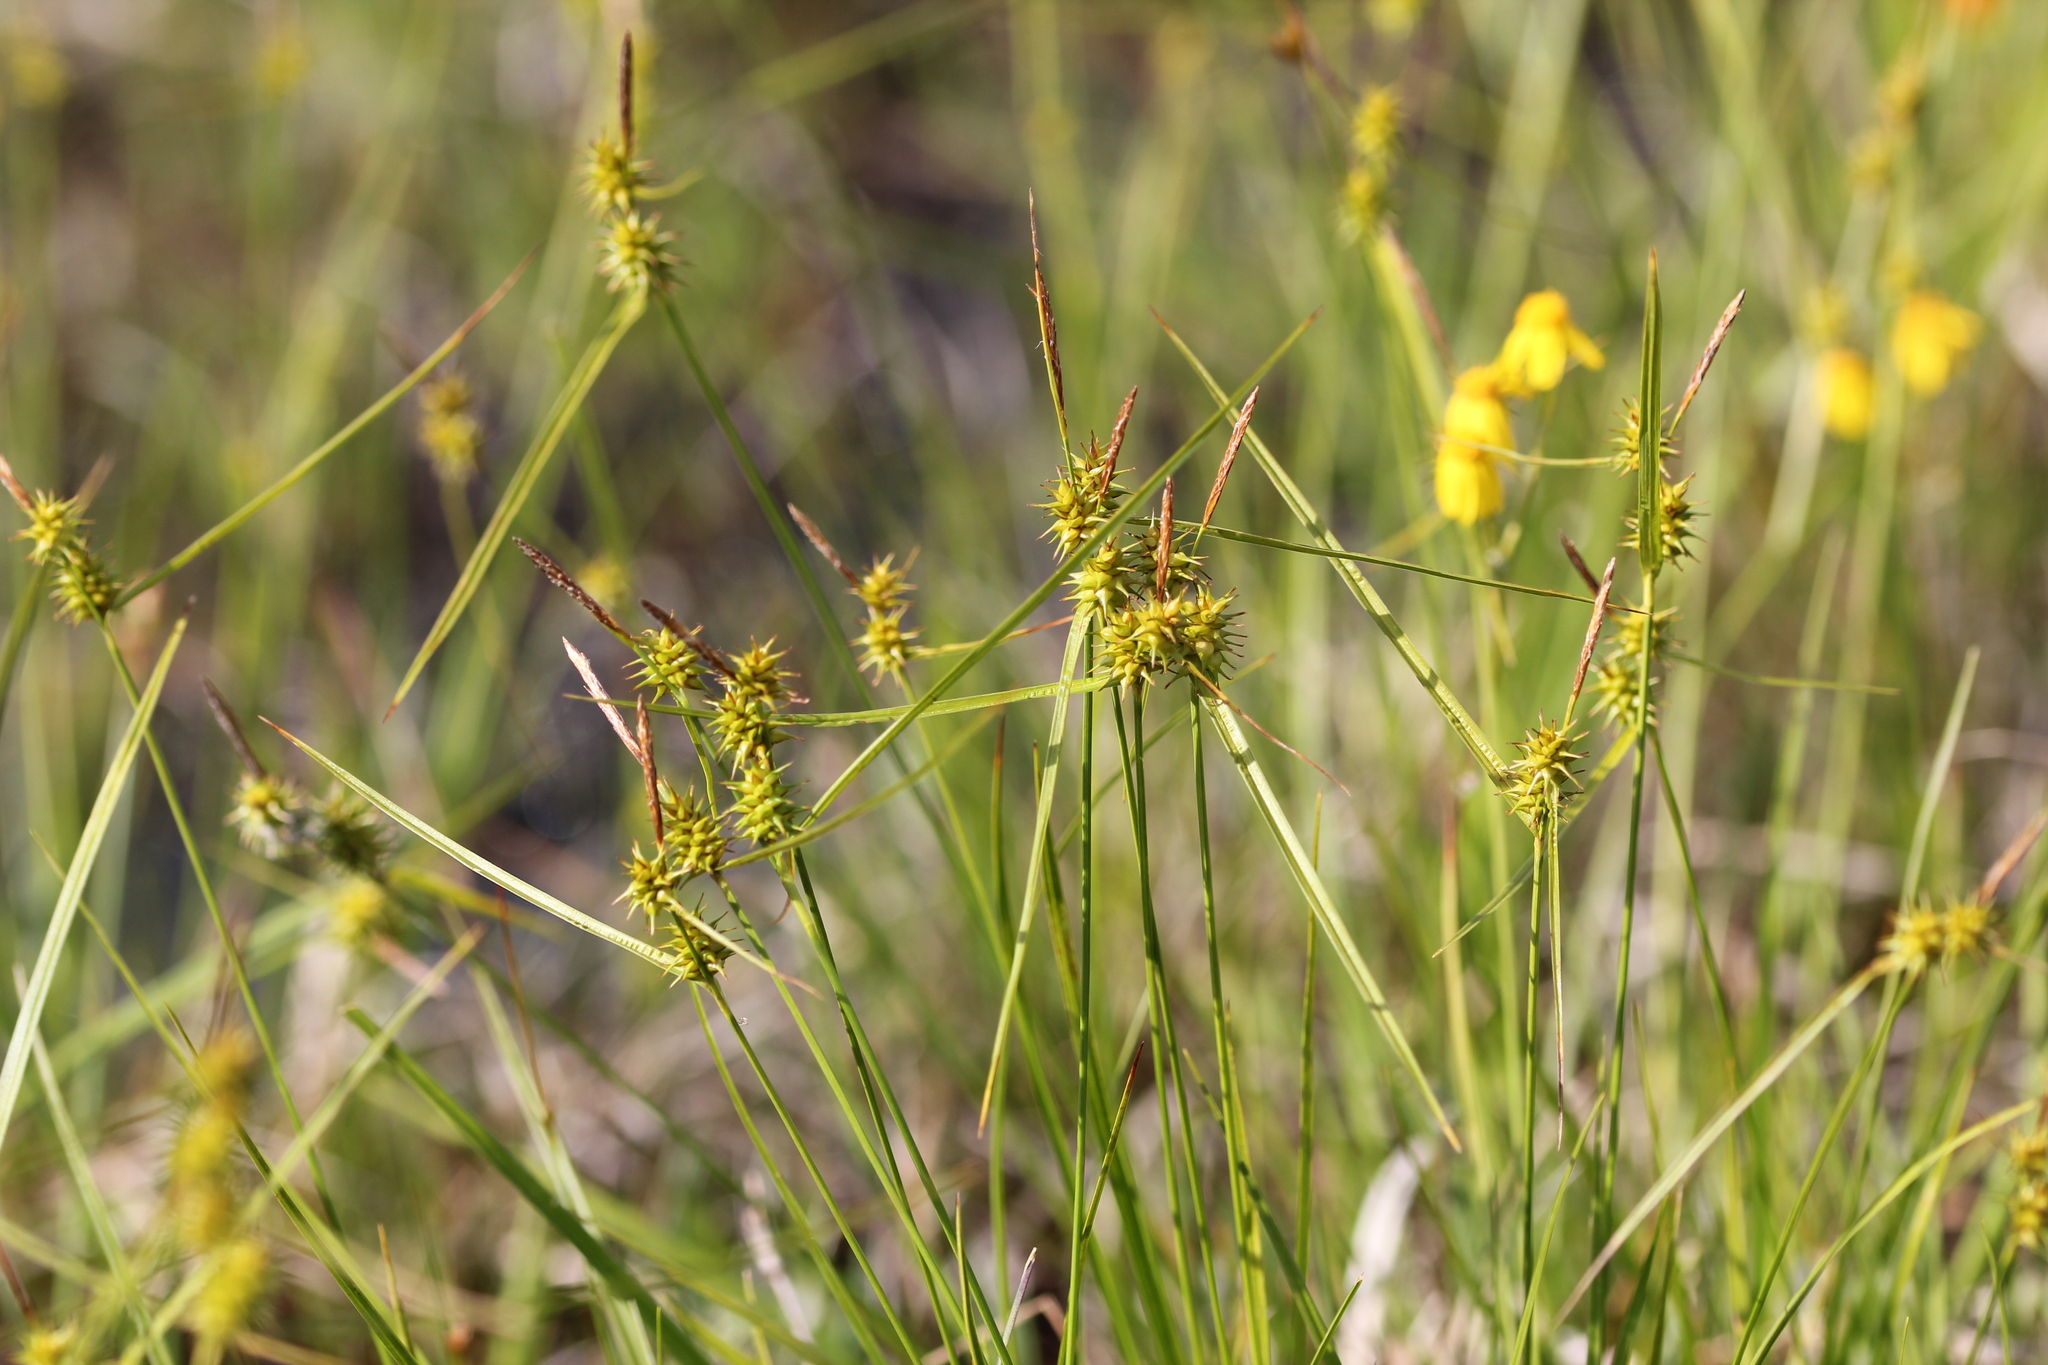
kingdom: Plantae
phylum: Tracheophyta
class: Liliopsida
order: Poales
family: Cyperaceae
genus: Carex
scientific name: Carex flava
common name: Large yellow-sedge
